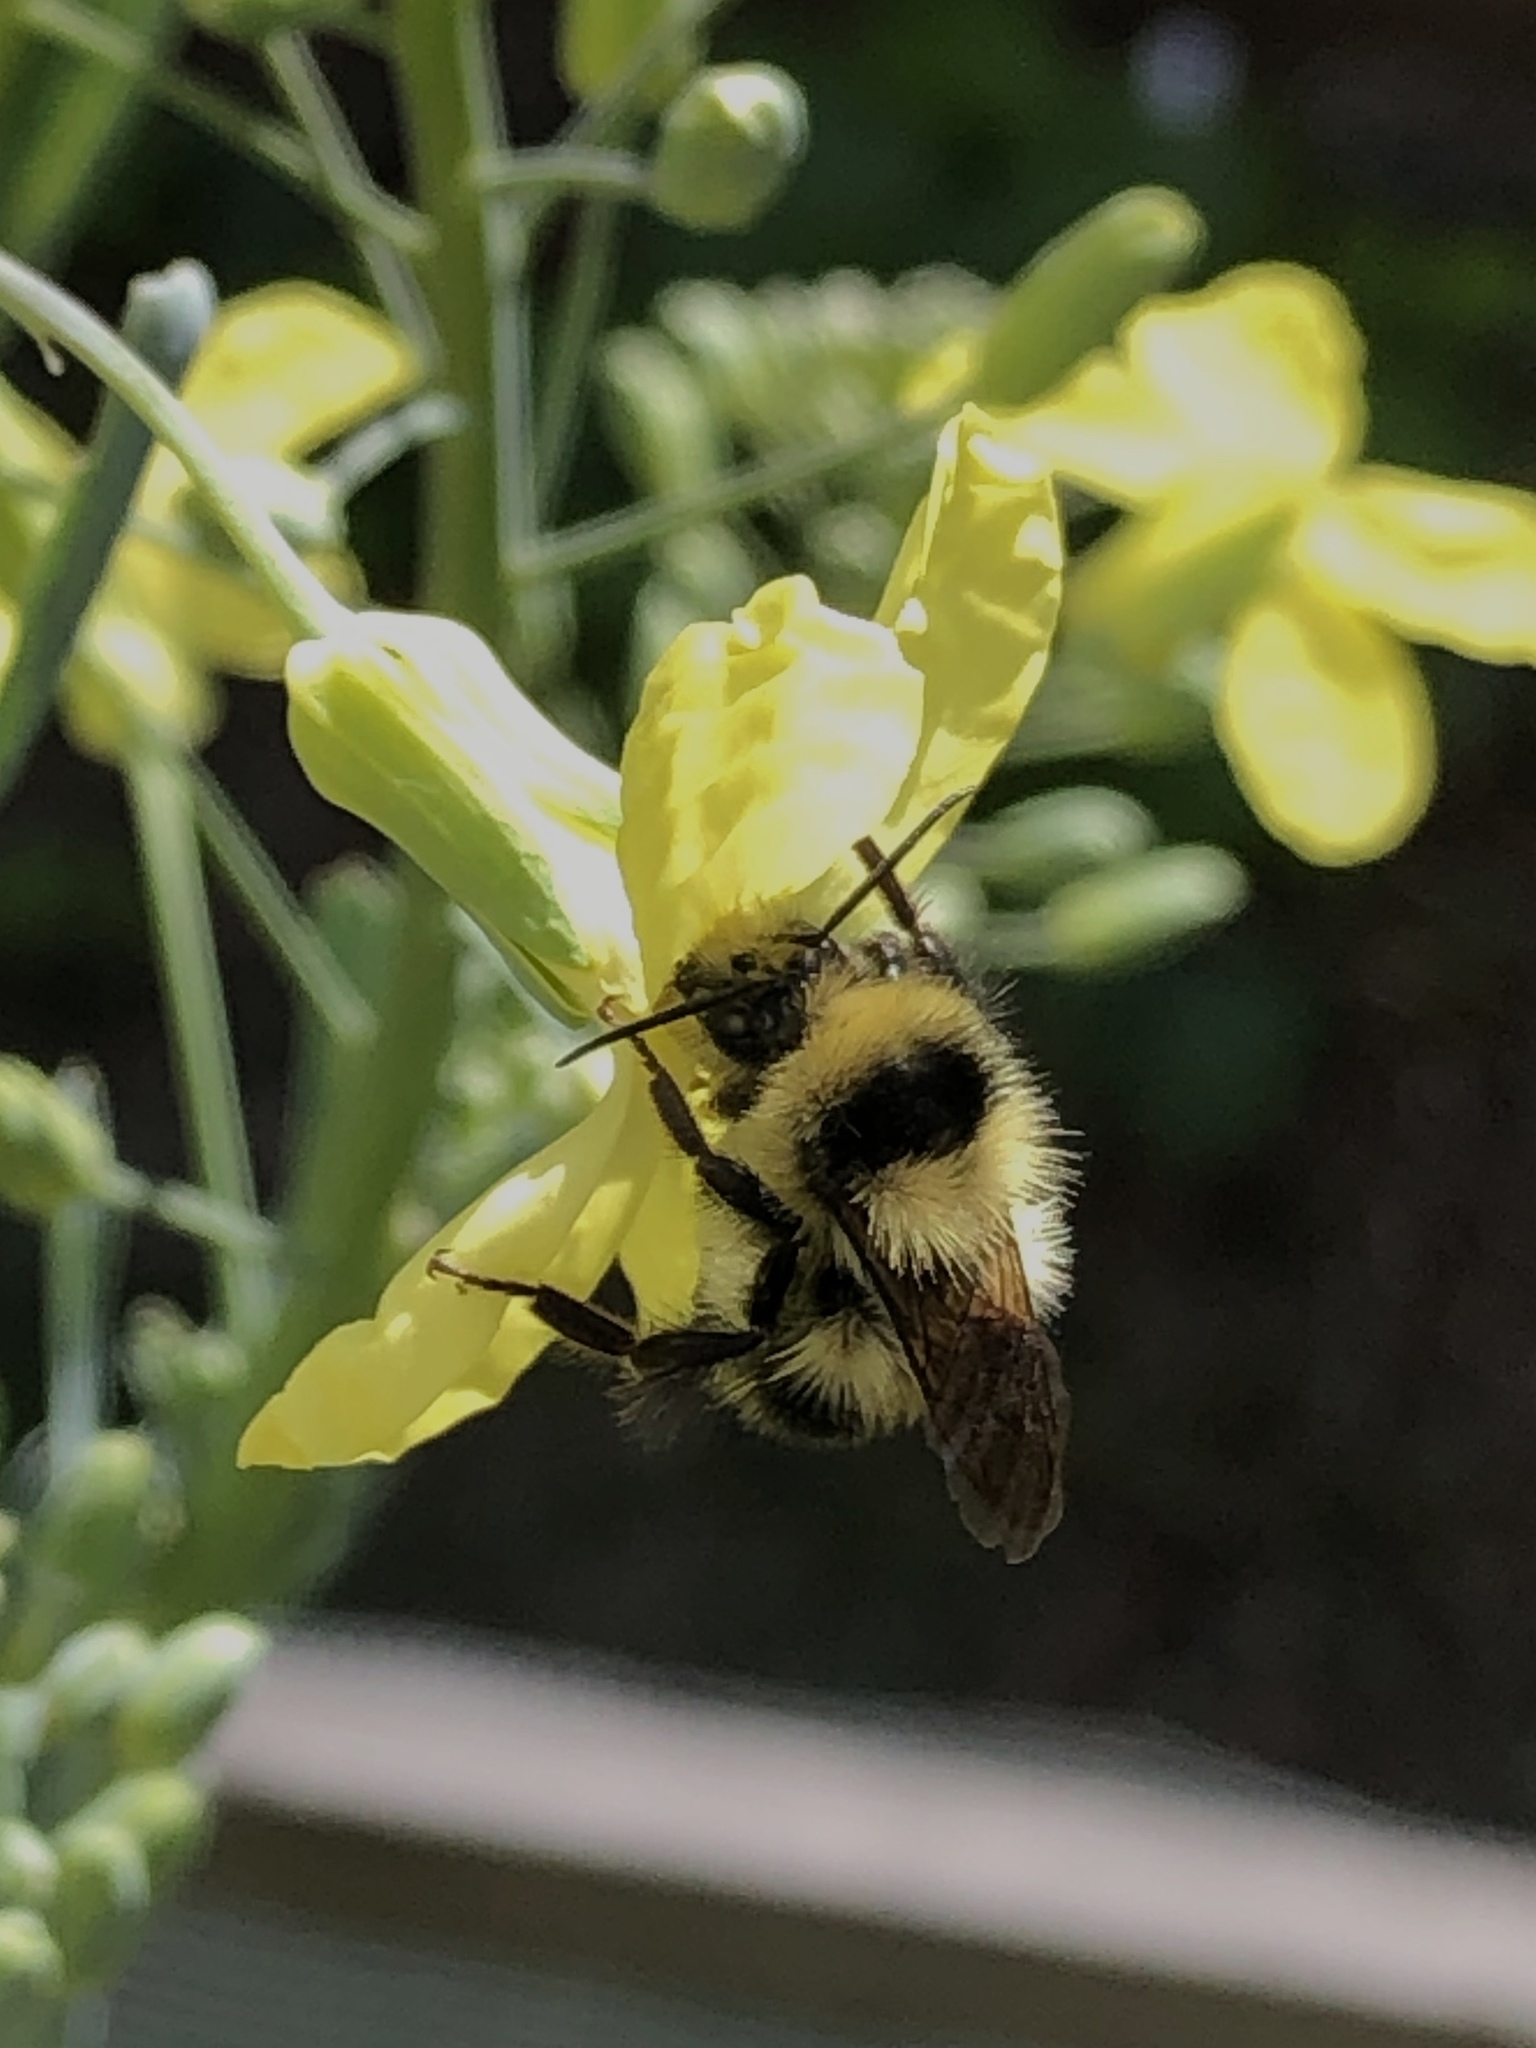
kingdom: Animalia
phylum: Arthropoda
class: Insecta
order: Hymenoptera
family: Apidae
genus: Bombus
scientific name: Bombus melanopygus
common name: Black tail bumble bee
